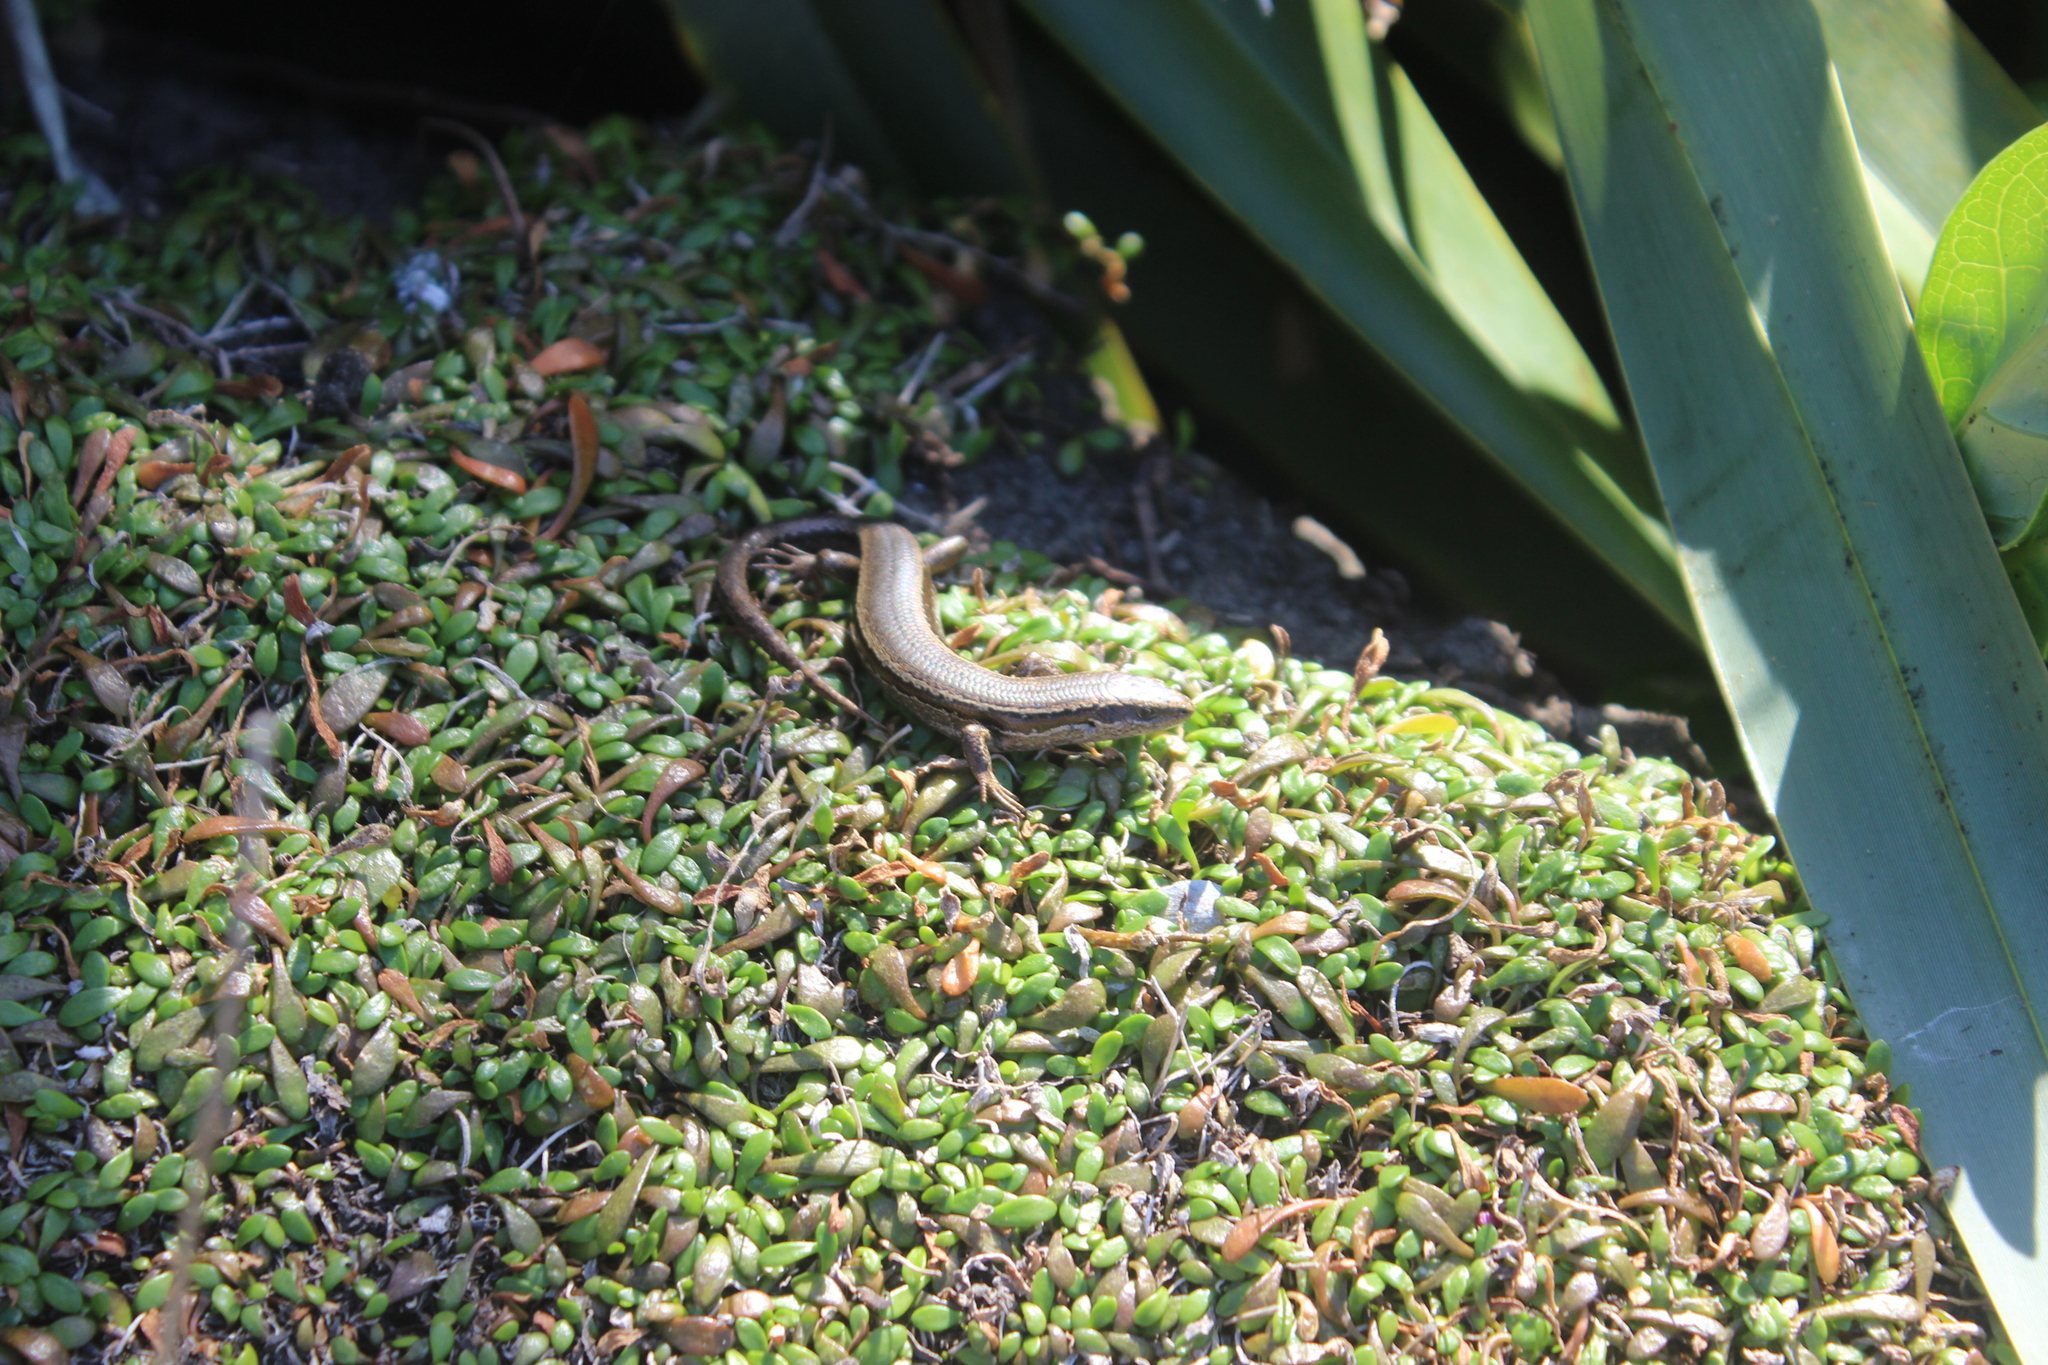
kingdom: Animalia
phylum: Chordata
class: Squamata
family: Scincidae
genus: Oligosoma
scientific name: Oligosoma polychroma
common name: Common new zealand skink
